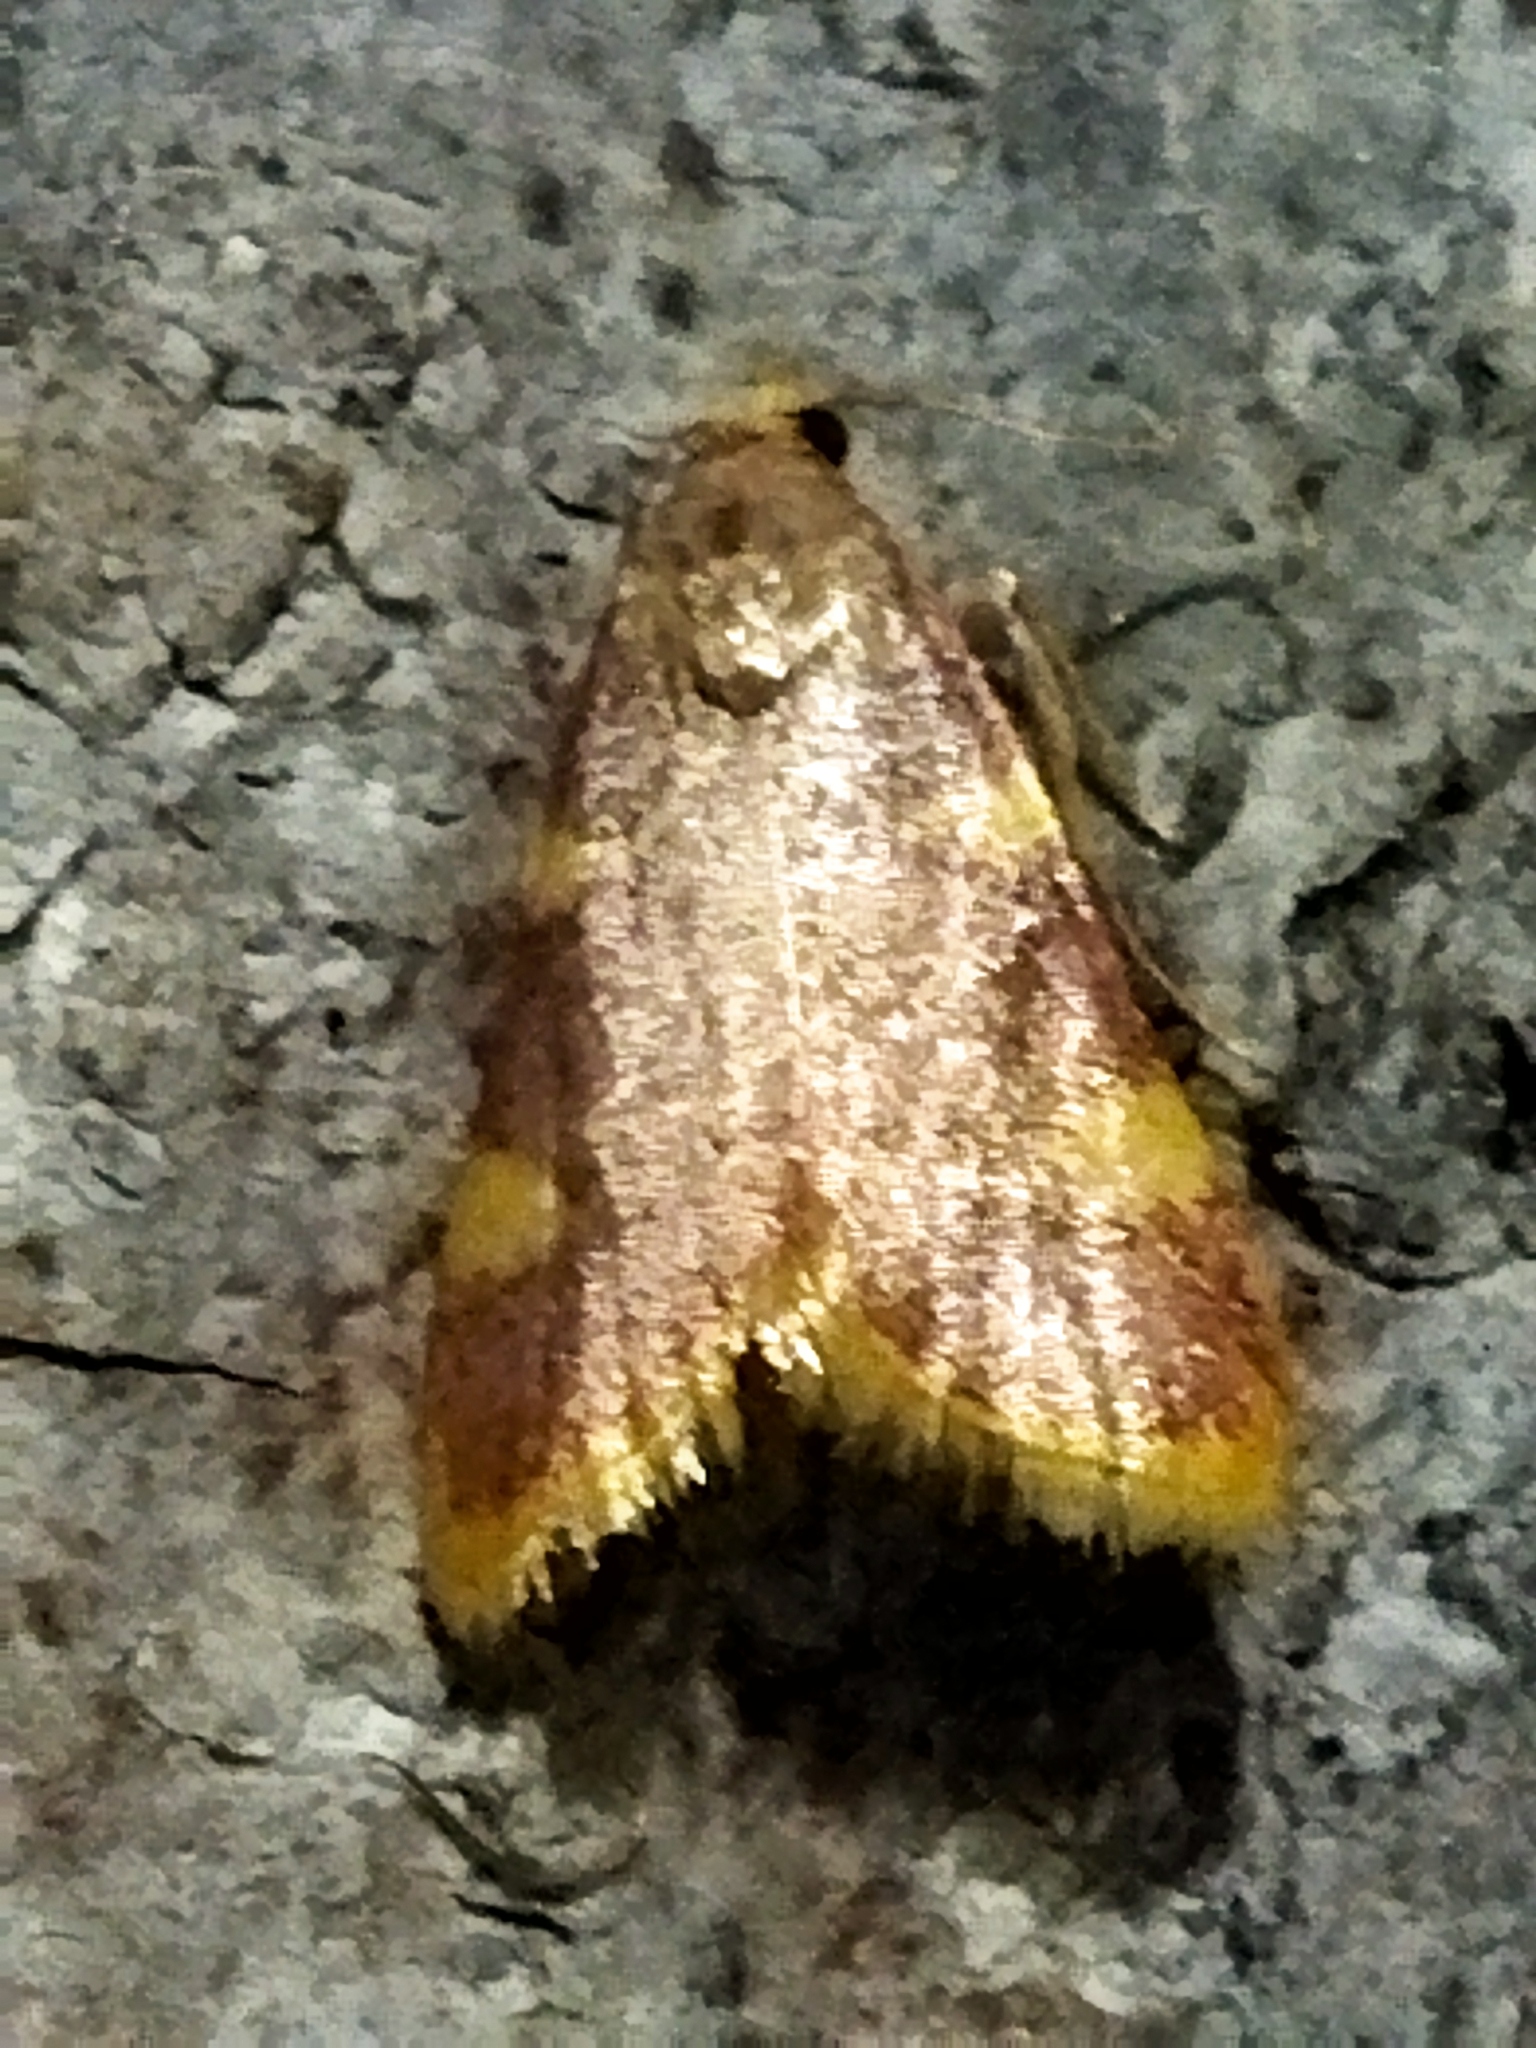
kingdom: Animalia
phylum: Arthropoda
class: Insecta
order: Lepidoptera
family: Pyralidae
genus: Hypsopygia
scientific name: Hypsopygia costalis
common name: Gold triangle
